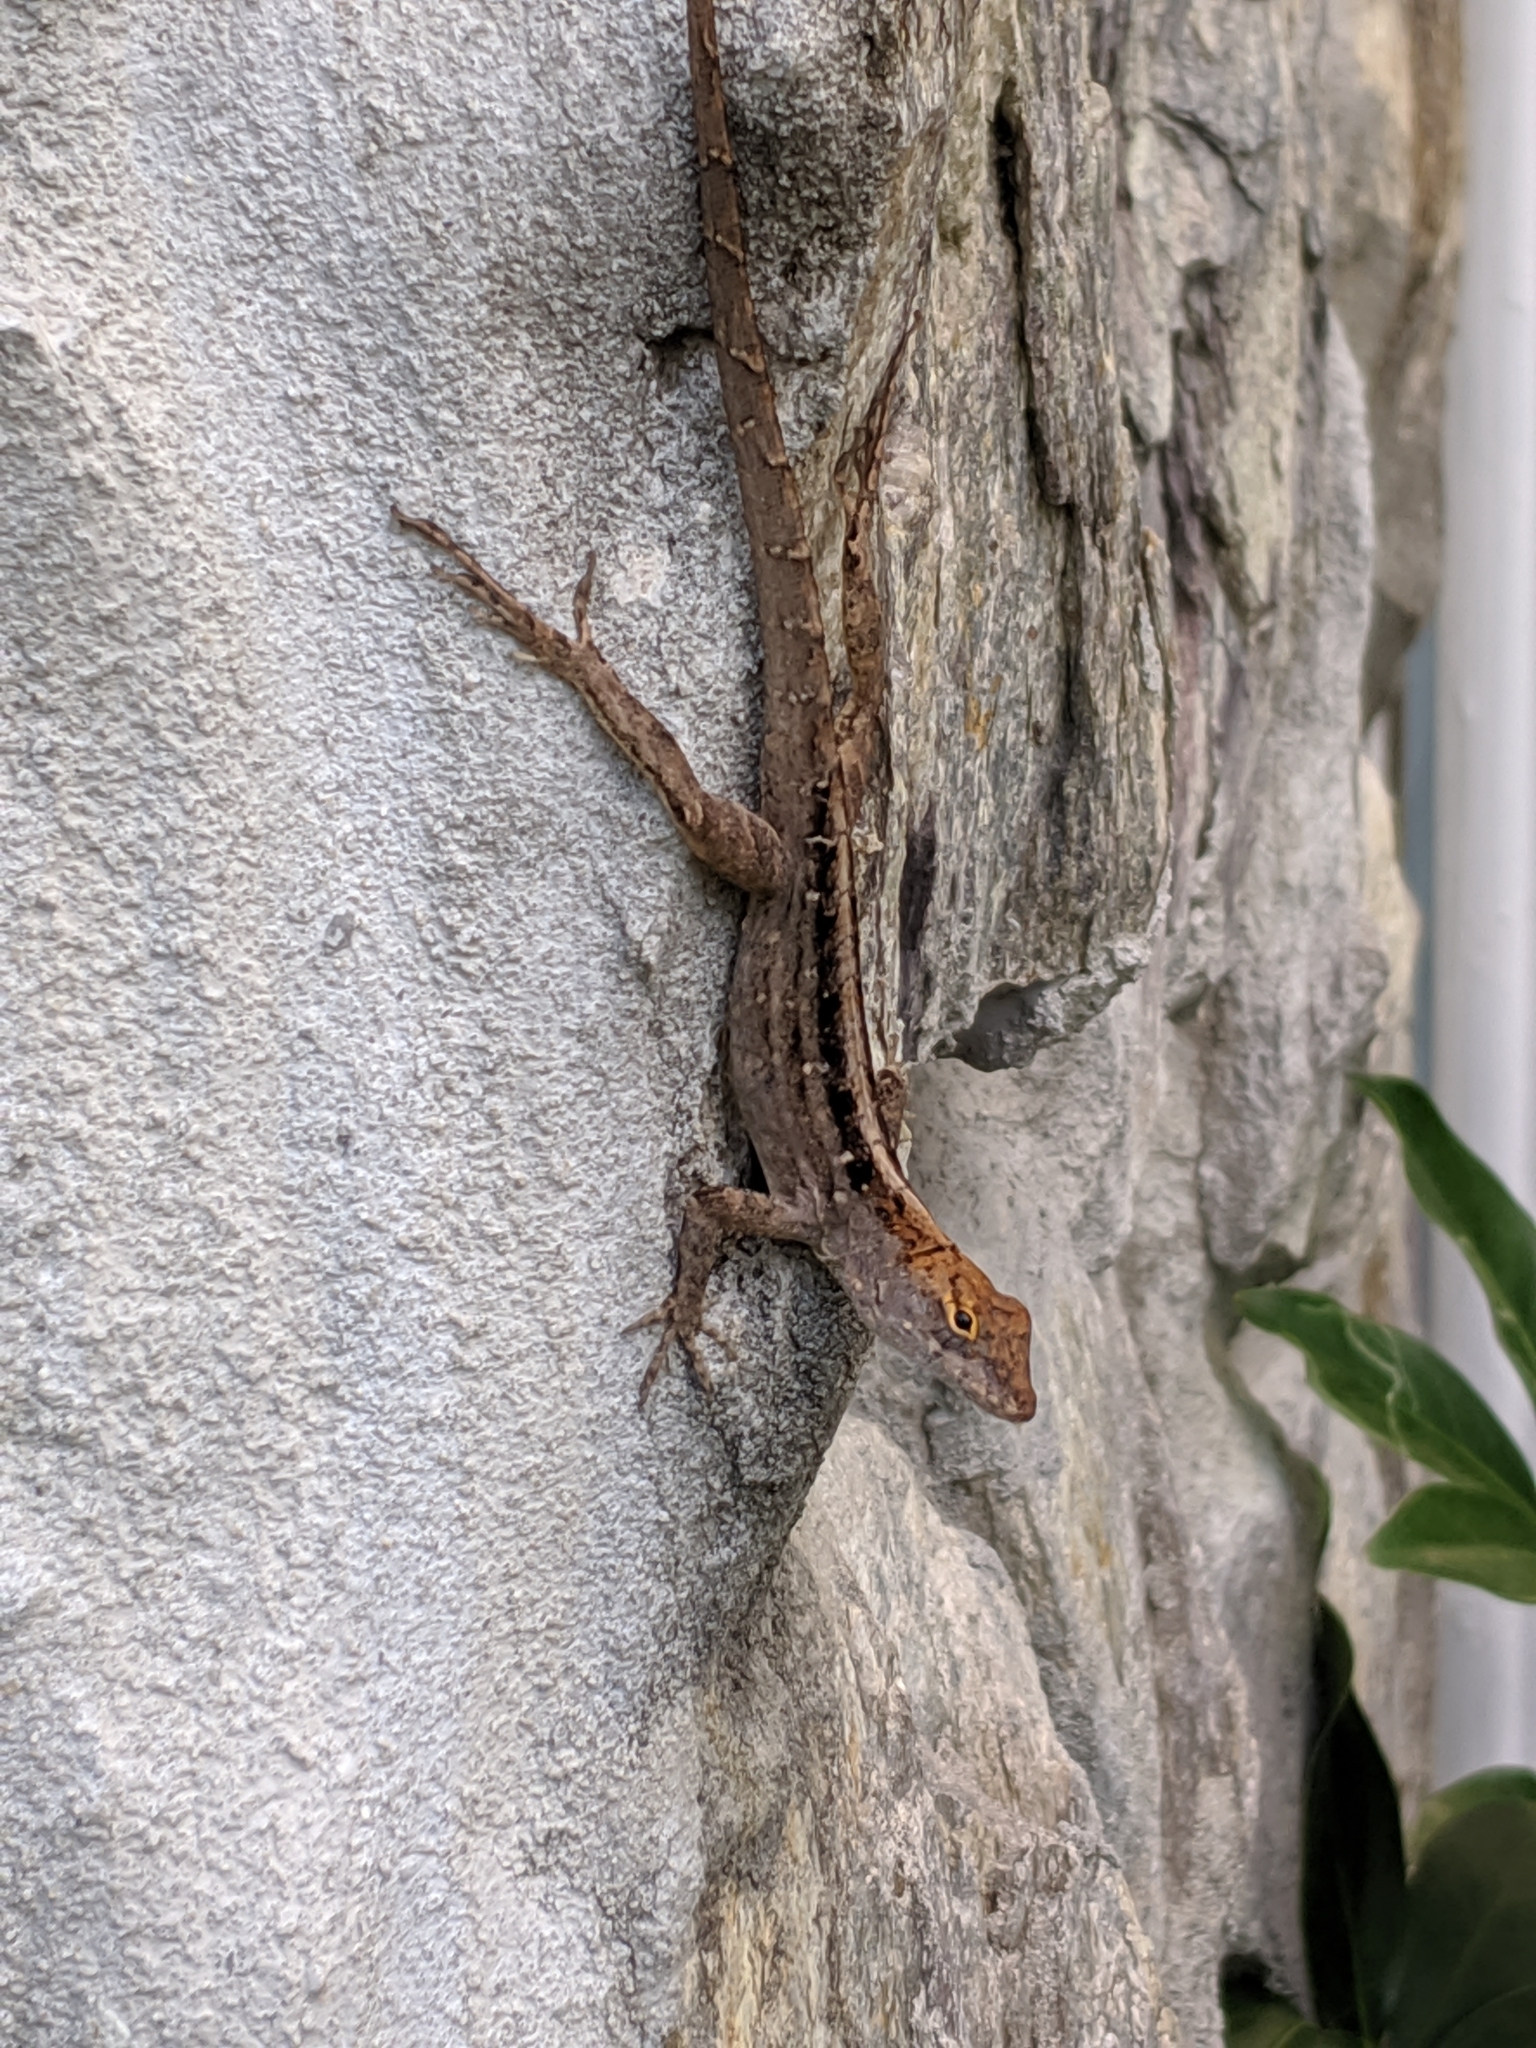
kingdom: Animalia
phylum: Chordata
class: Squamata
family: Dactyloidae
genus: Anolis
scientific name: Anolis sagrei
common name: Brown anole
